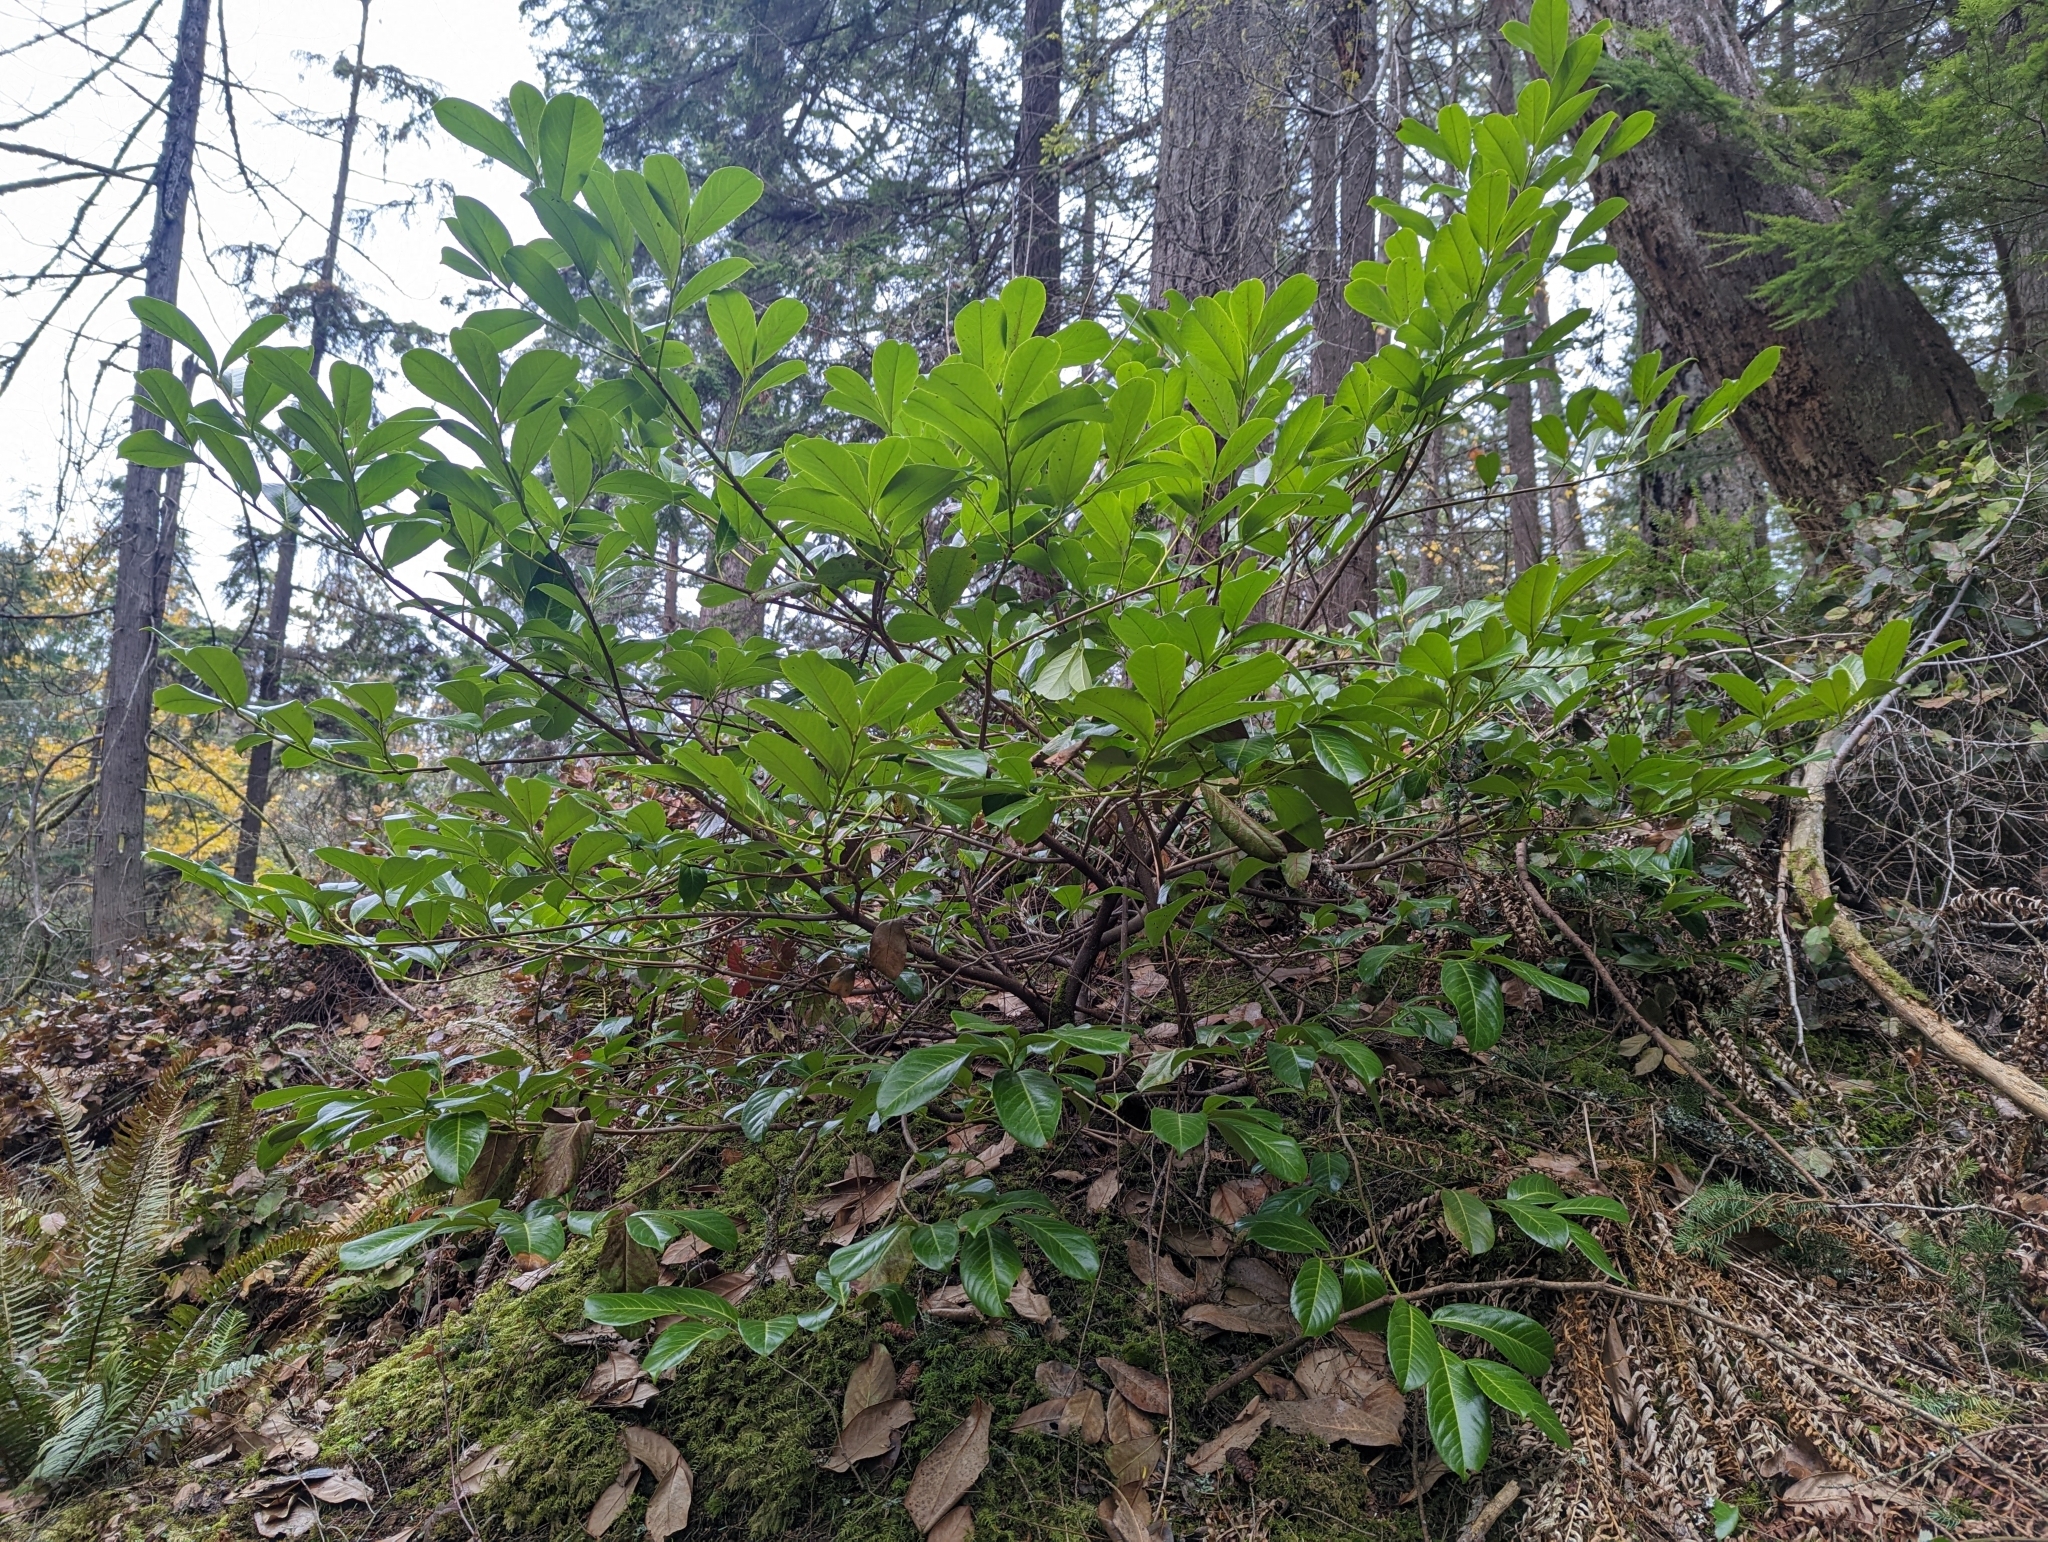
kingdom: Plantae
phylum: Tracheophyta
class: Magnoliopsida
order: Rosales
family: Rosaceae
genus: Prunus
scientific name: Prunus laurocerasus
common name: Cherry laurel
